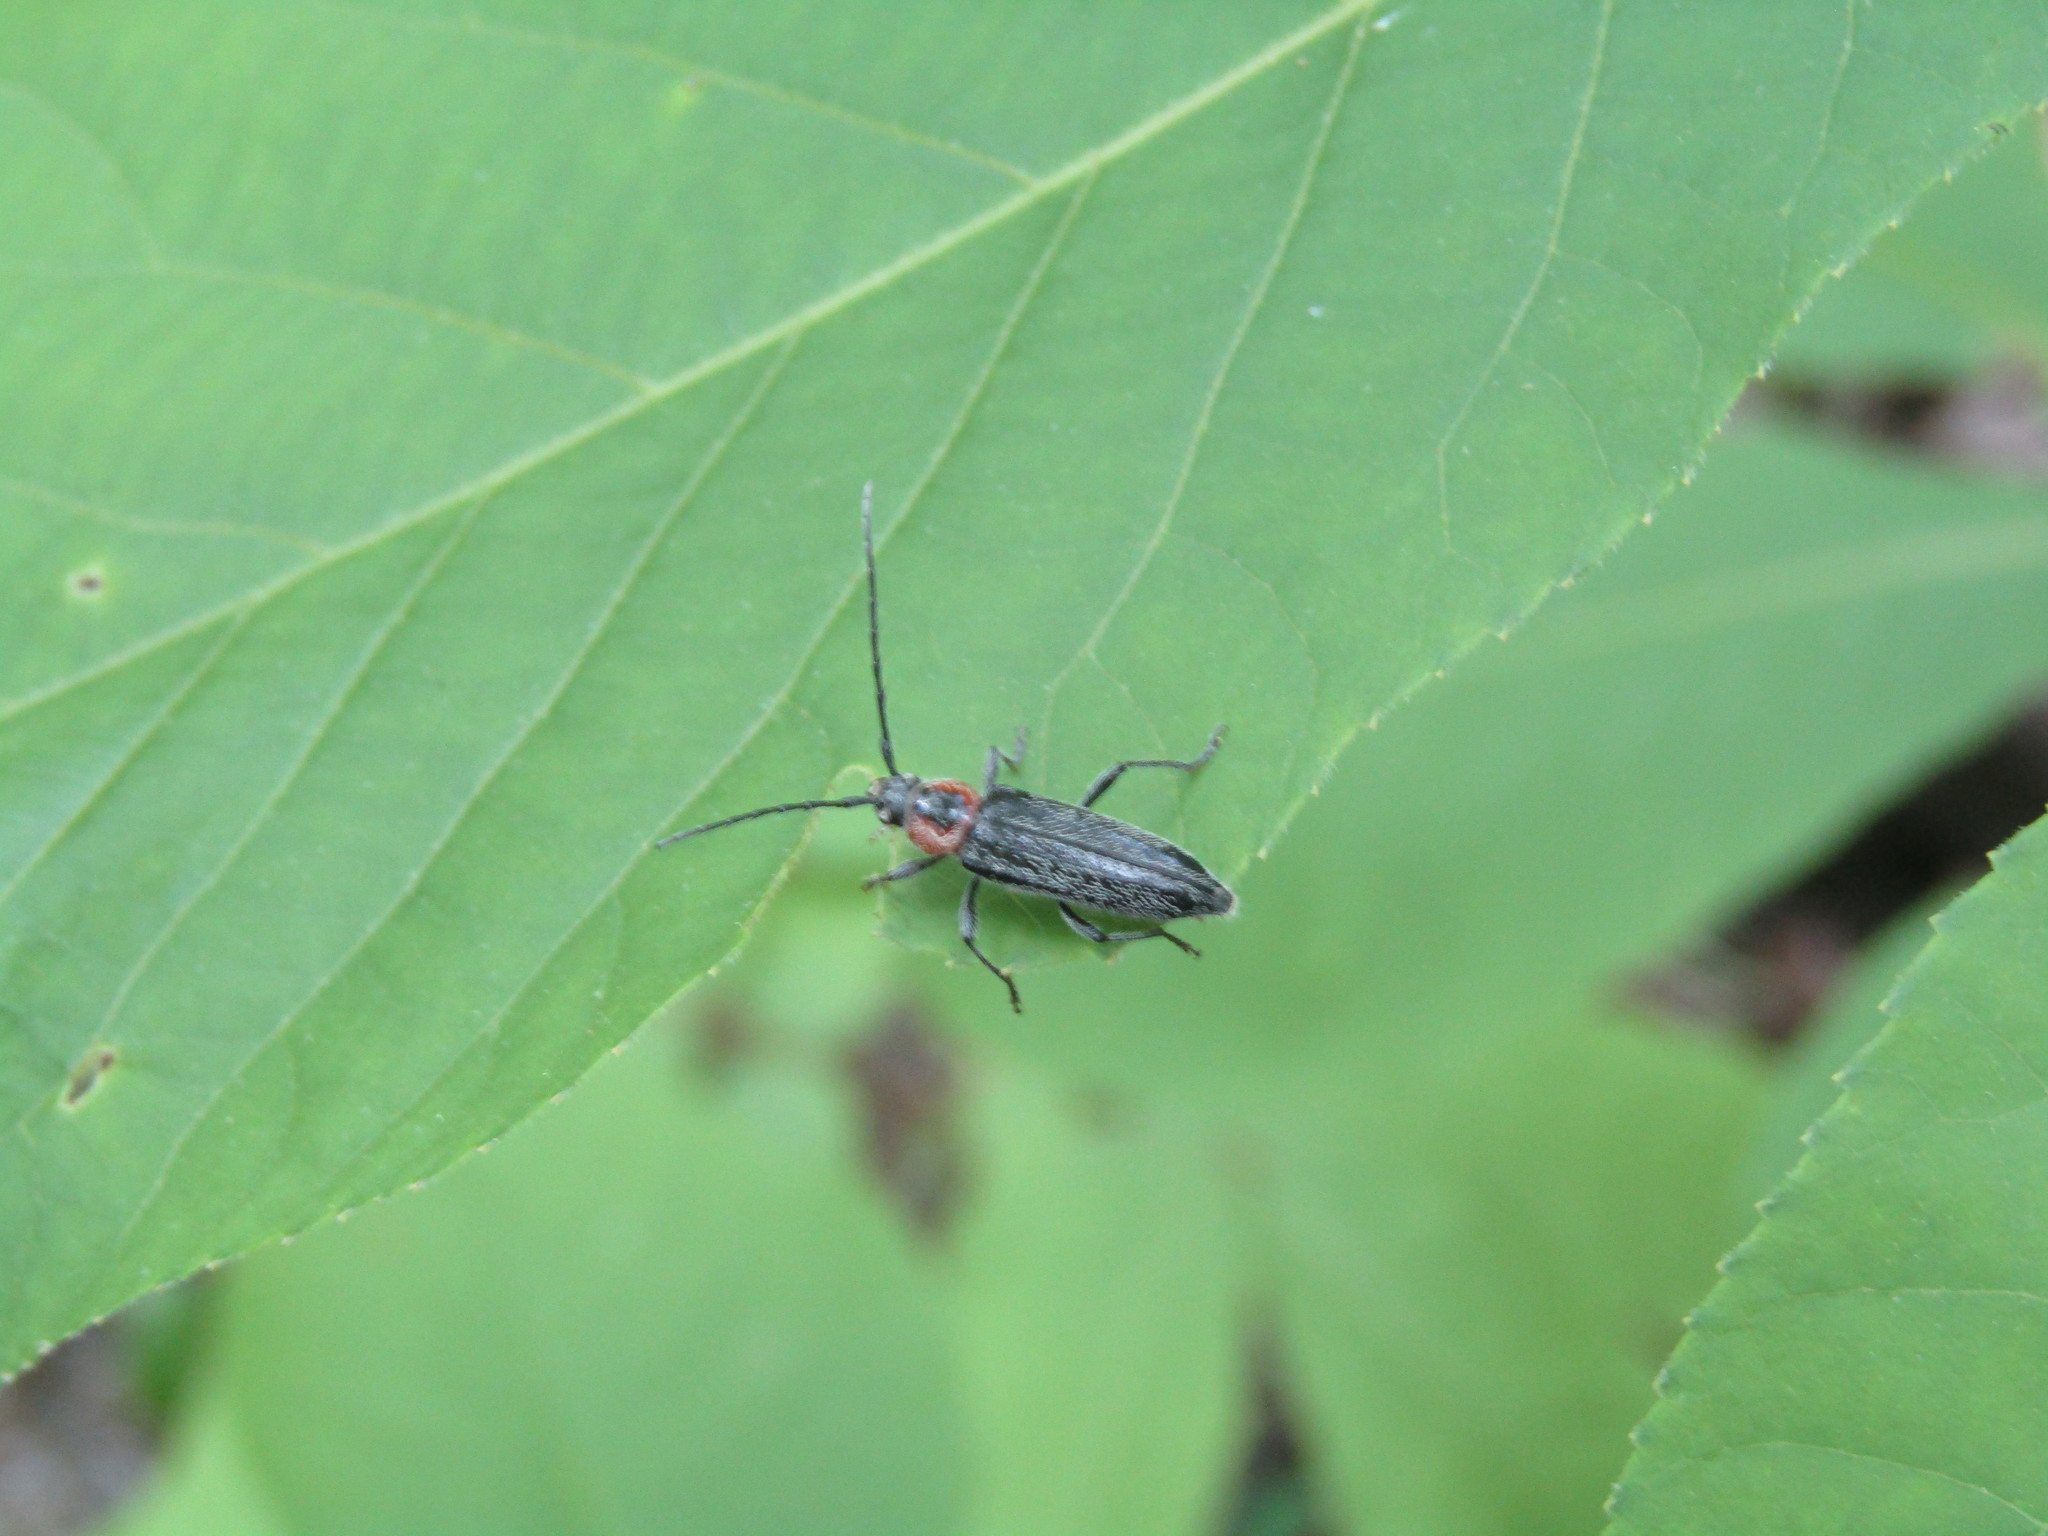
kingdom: Animalia
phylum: Arthropoda
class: Insecta
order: Coleoptera
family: Cerambycidae
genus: Stenosphenus
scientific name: Stenosphenus notatus
